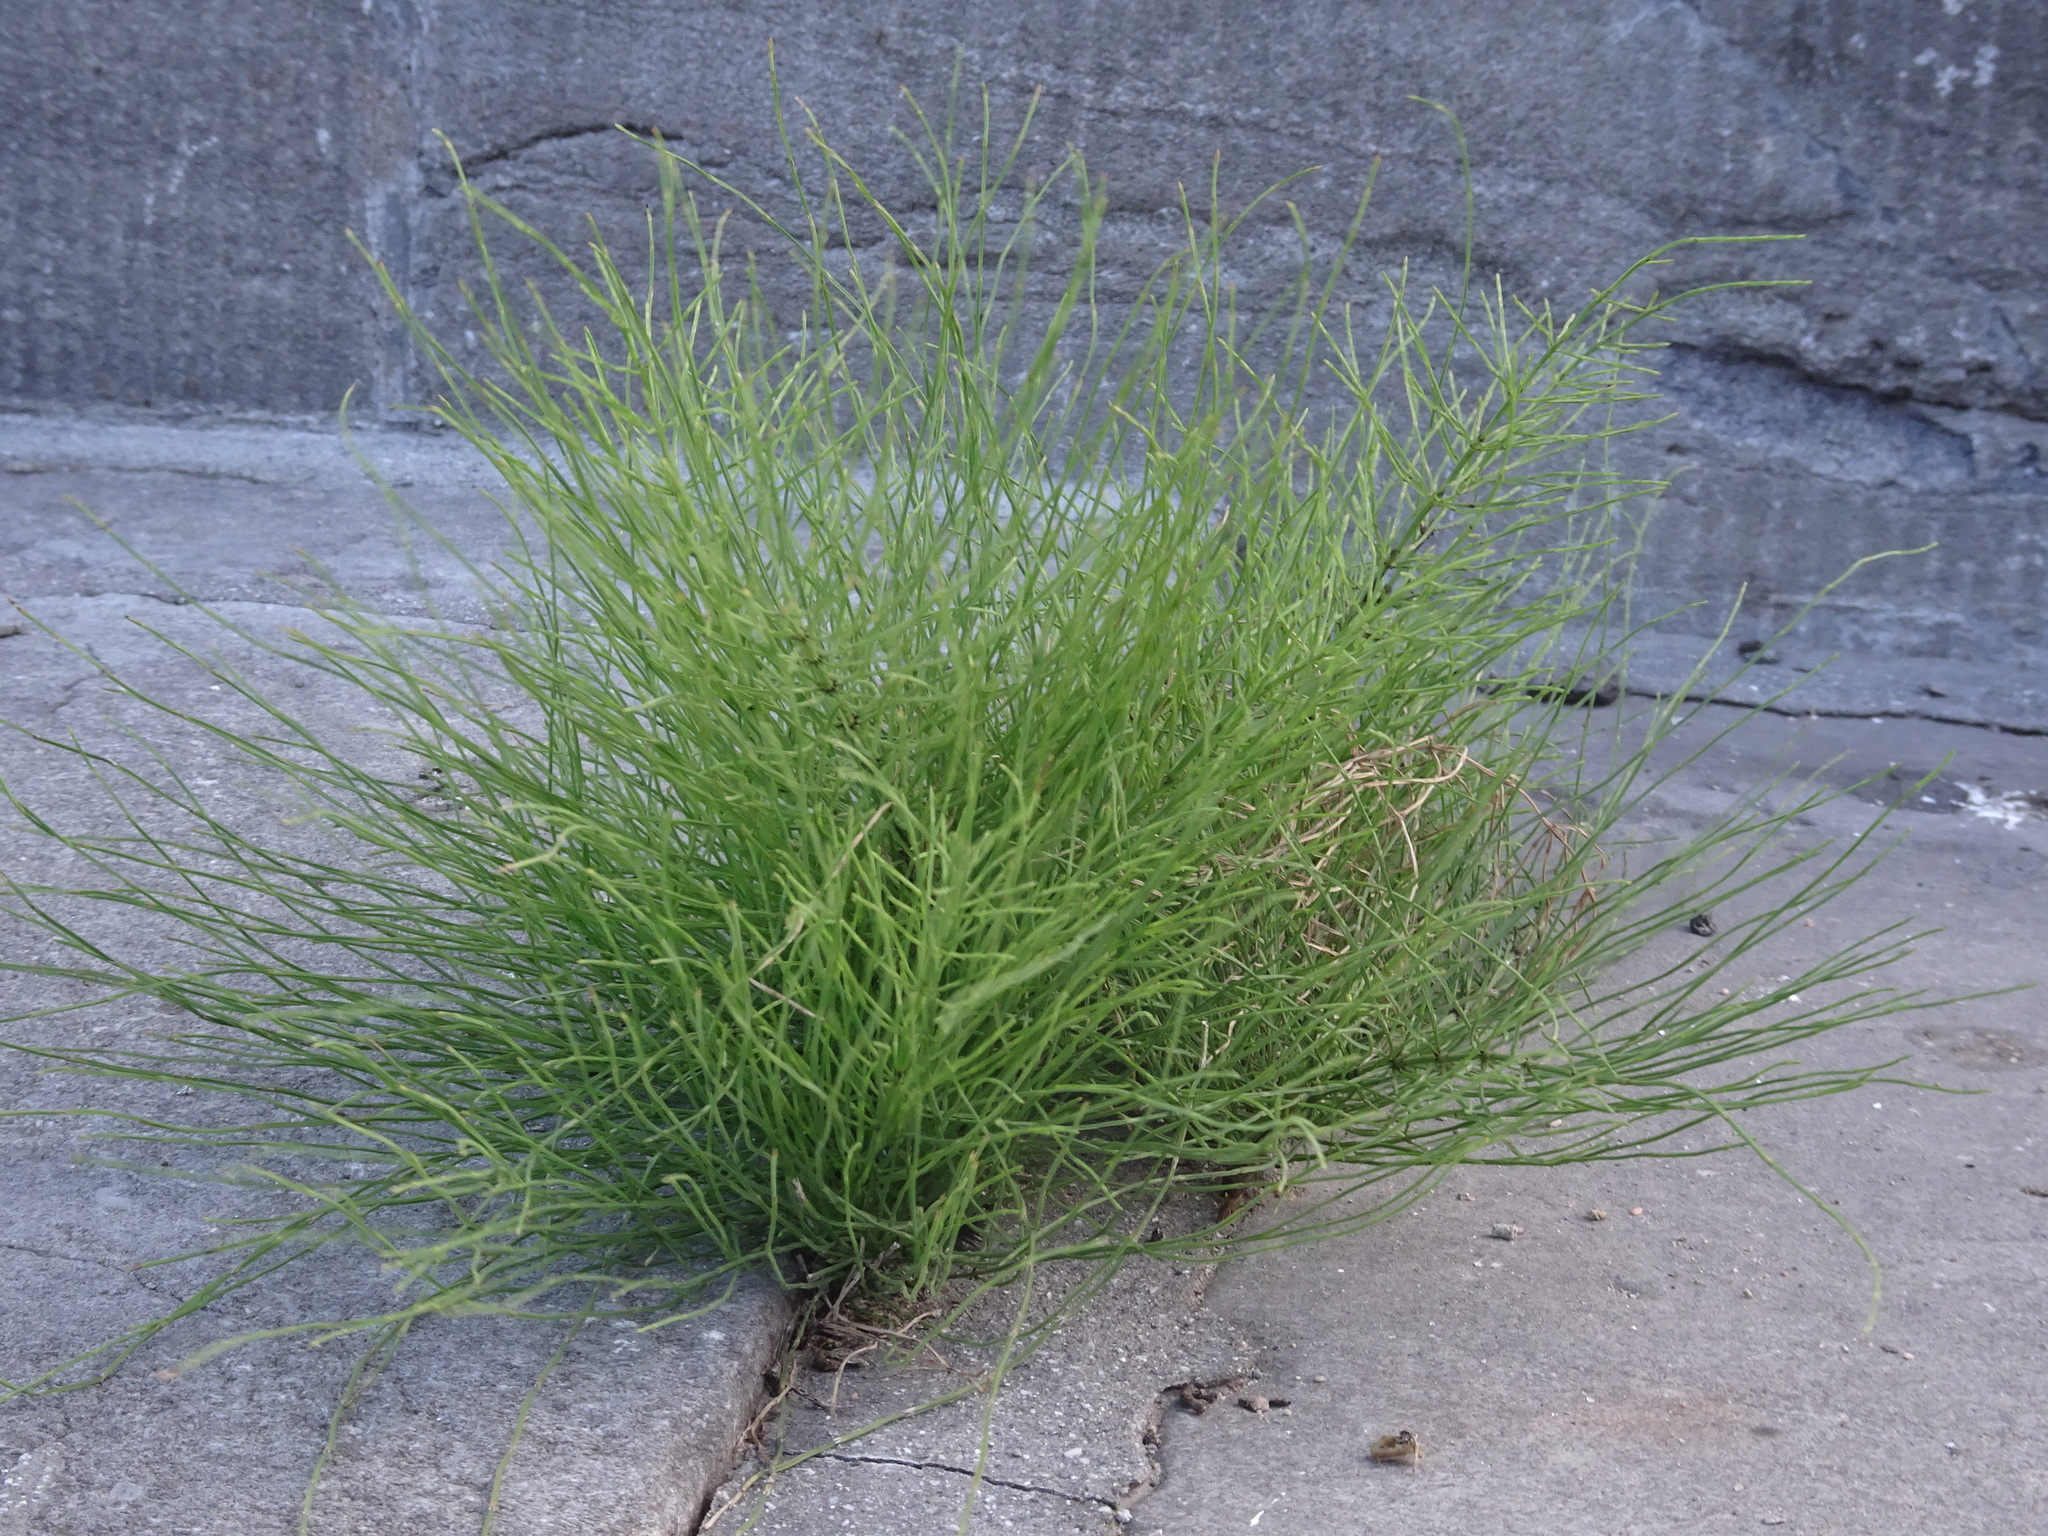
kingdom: Plantae
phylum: Tracheophyta
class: Polypodiopsida
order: Equisetales
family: Equisetaceae
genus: Equisetum
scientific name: Equisetum arvense
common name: Field horsetail
